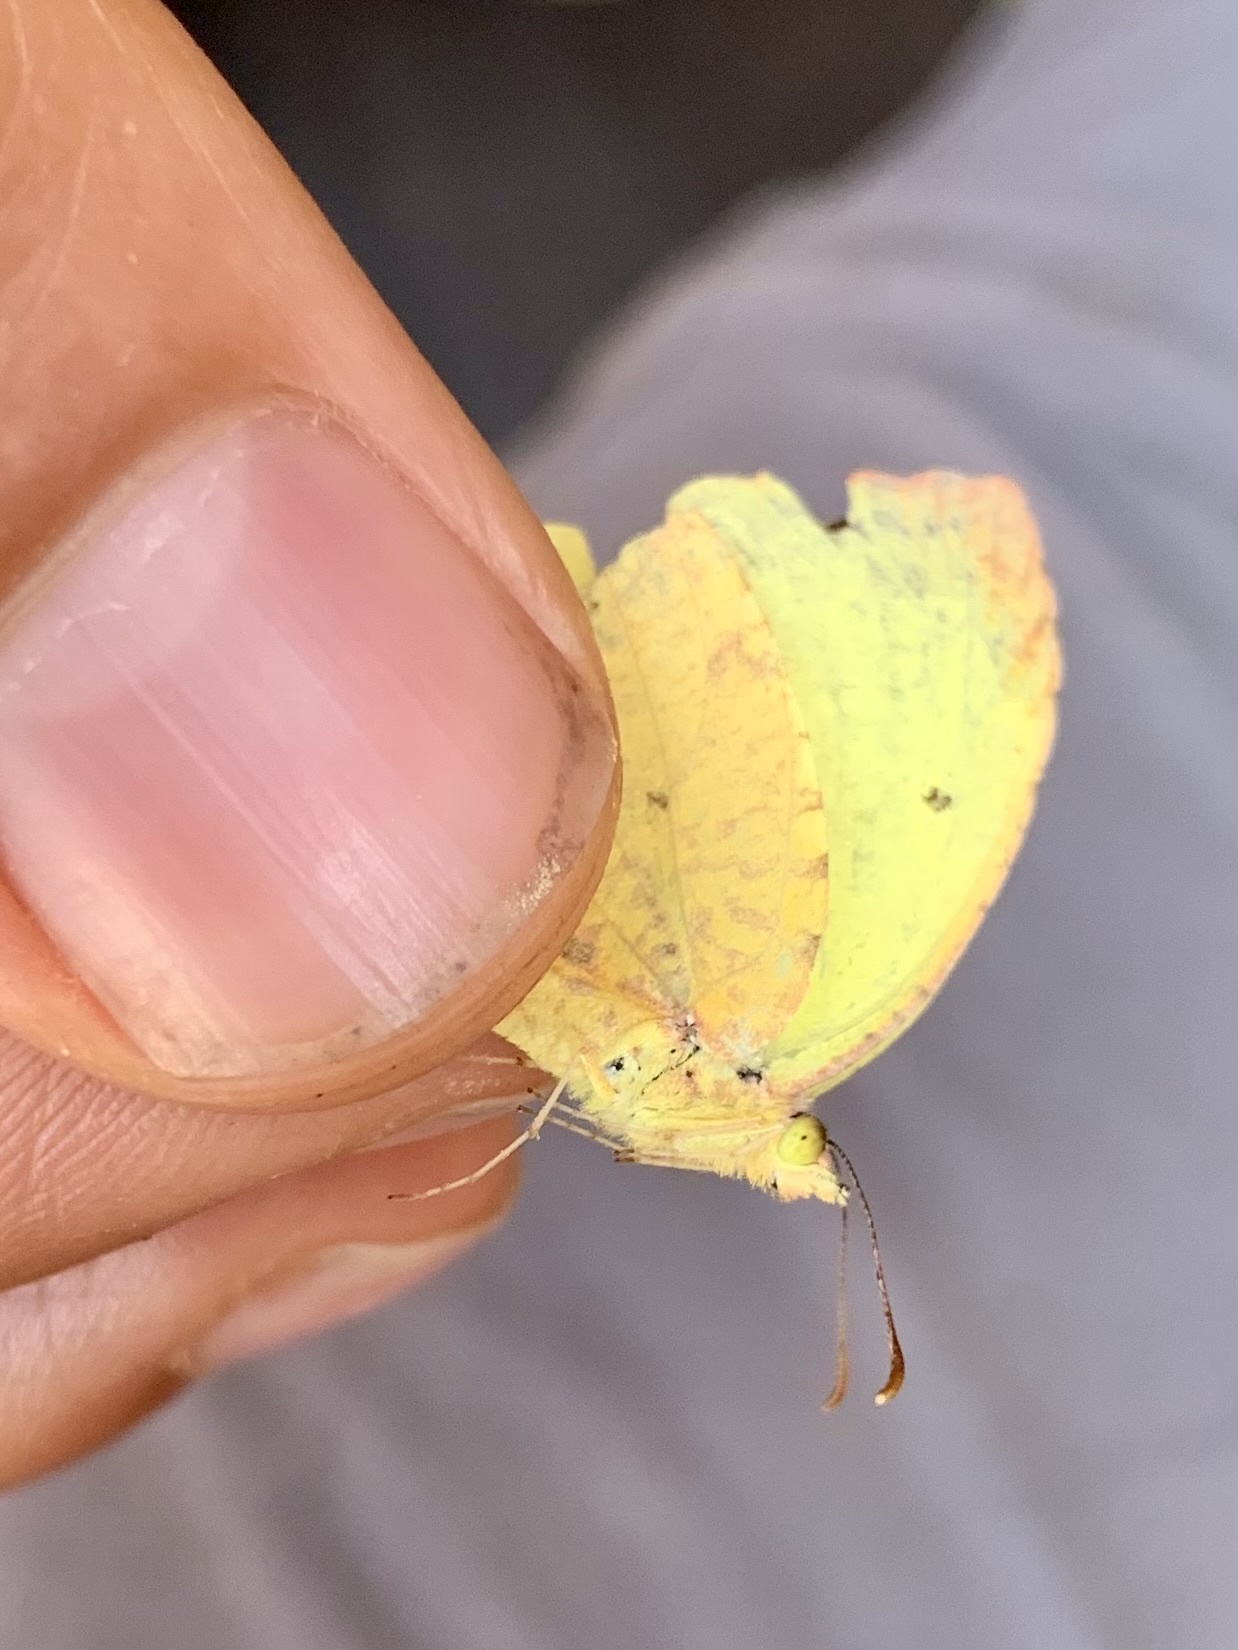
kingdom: Animalia
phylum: Arthropoda
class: Insecta
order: Lepidoptera
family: Pieridae
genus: Abaeis
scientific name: Abaeis salome
